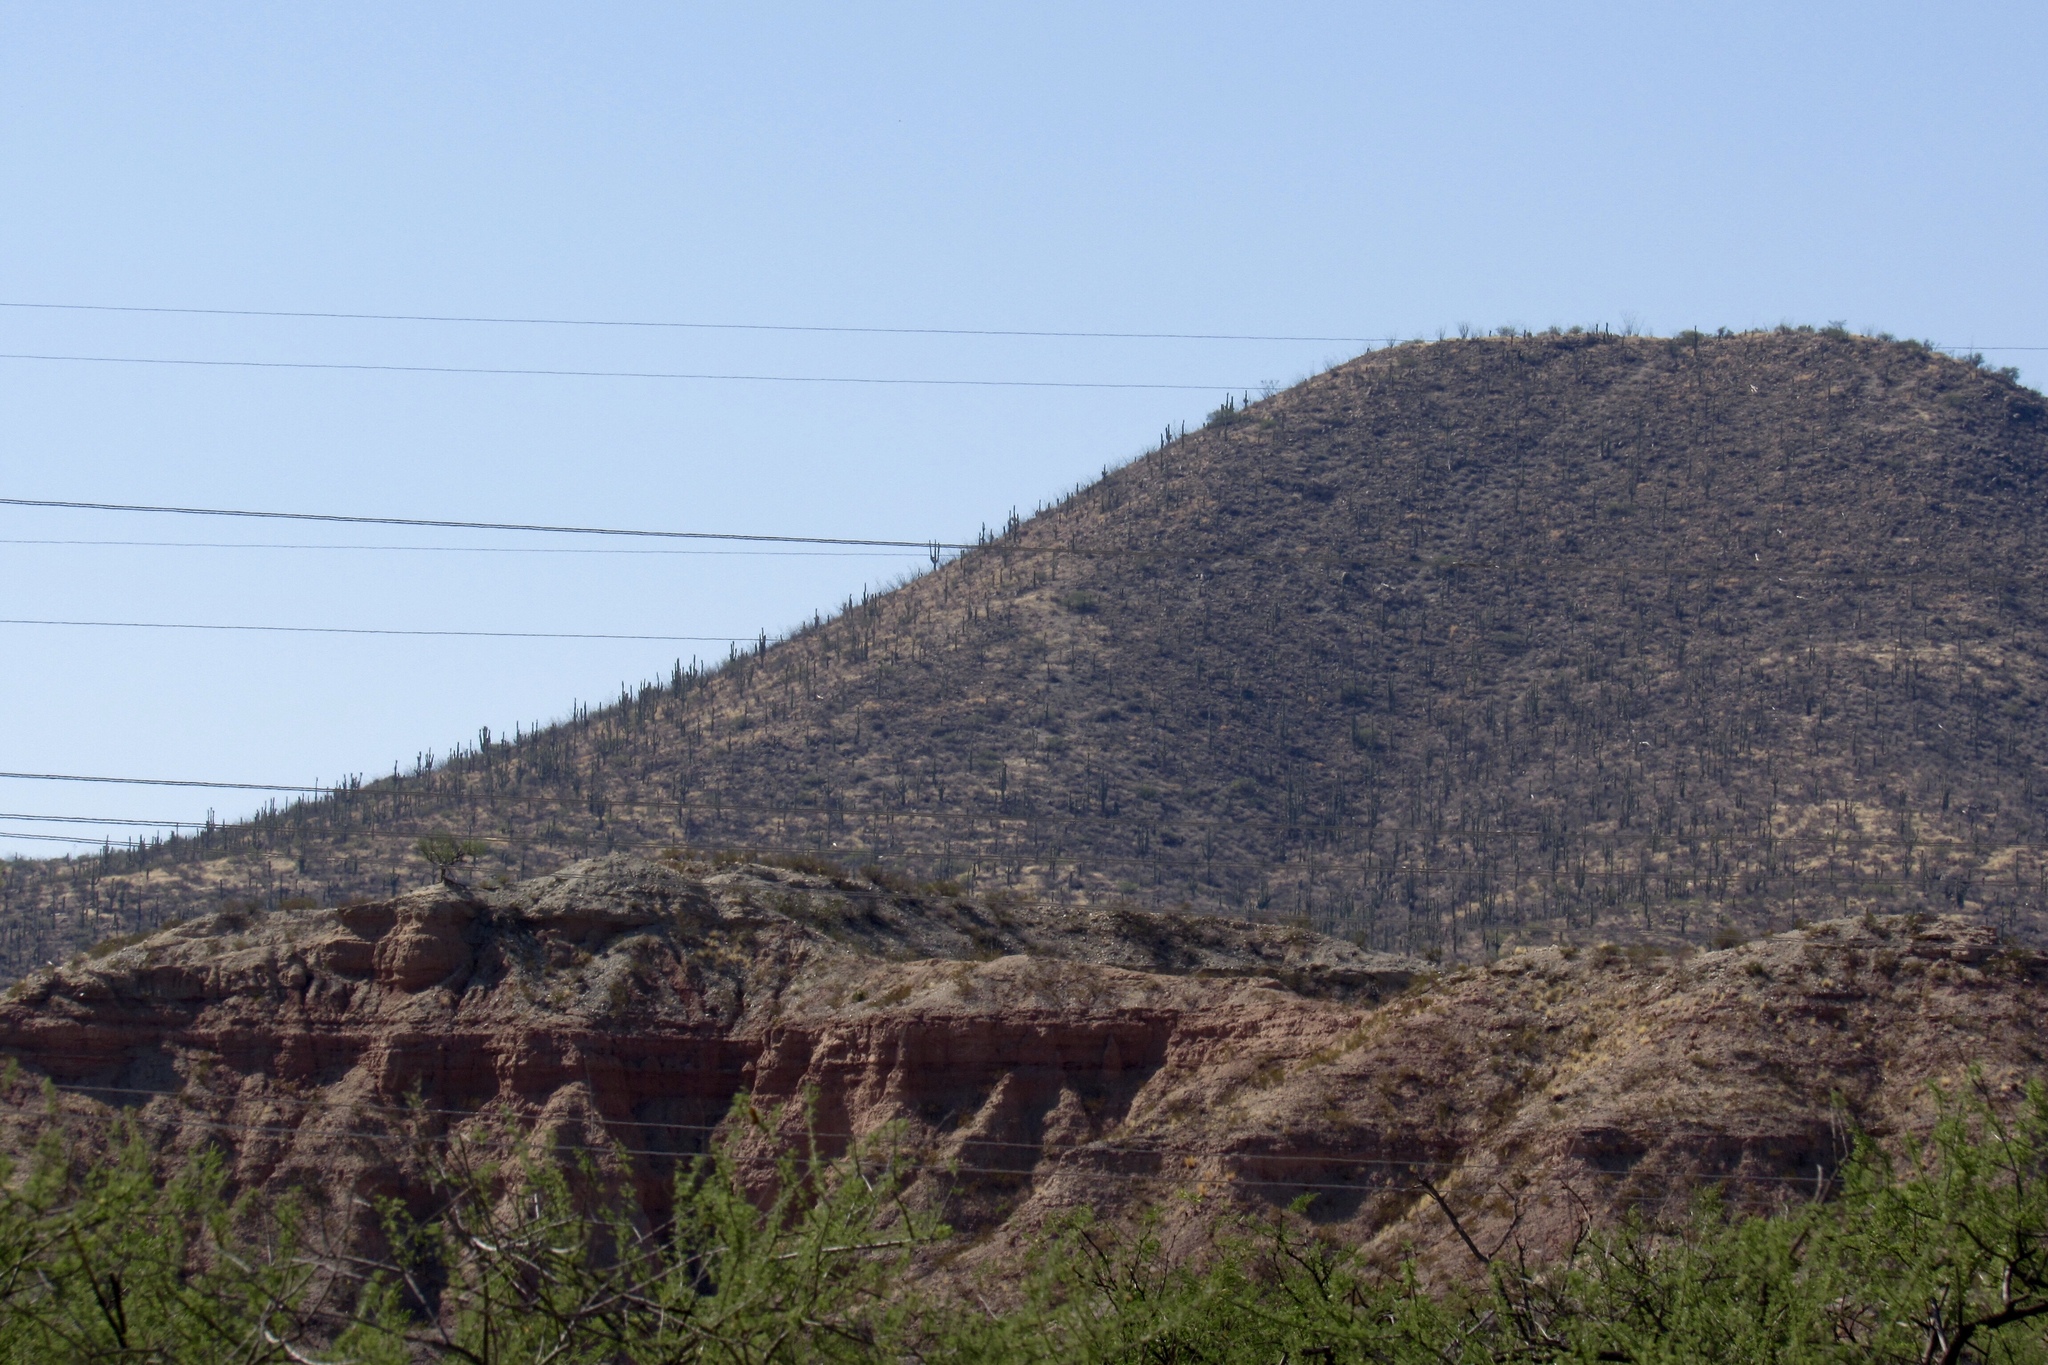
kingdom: Plantae
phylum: Tracheophyta
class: Magnoliopsida
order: Caryophyllales
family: Cactaceae
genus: Carnegiea
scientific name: Carnegiea gigantea
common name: Saguaro
